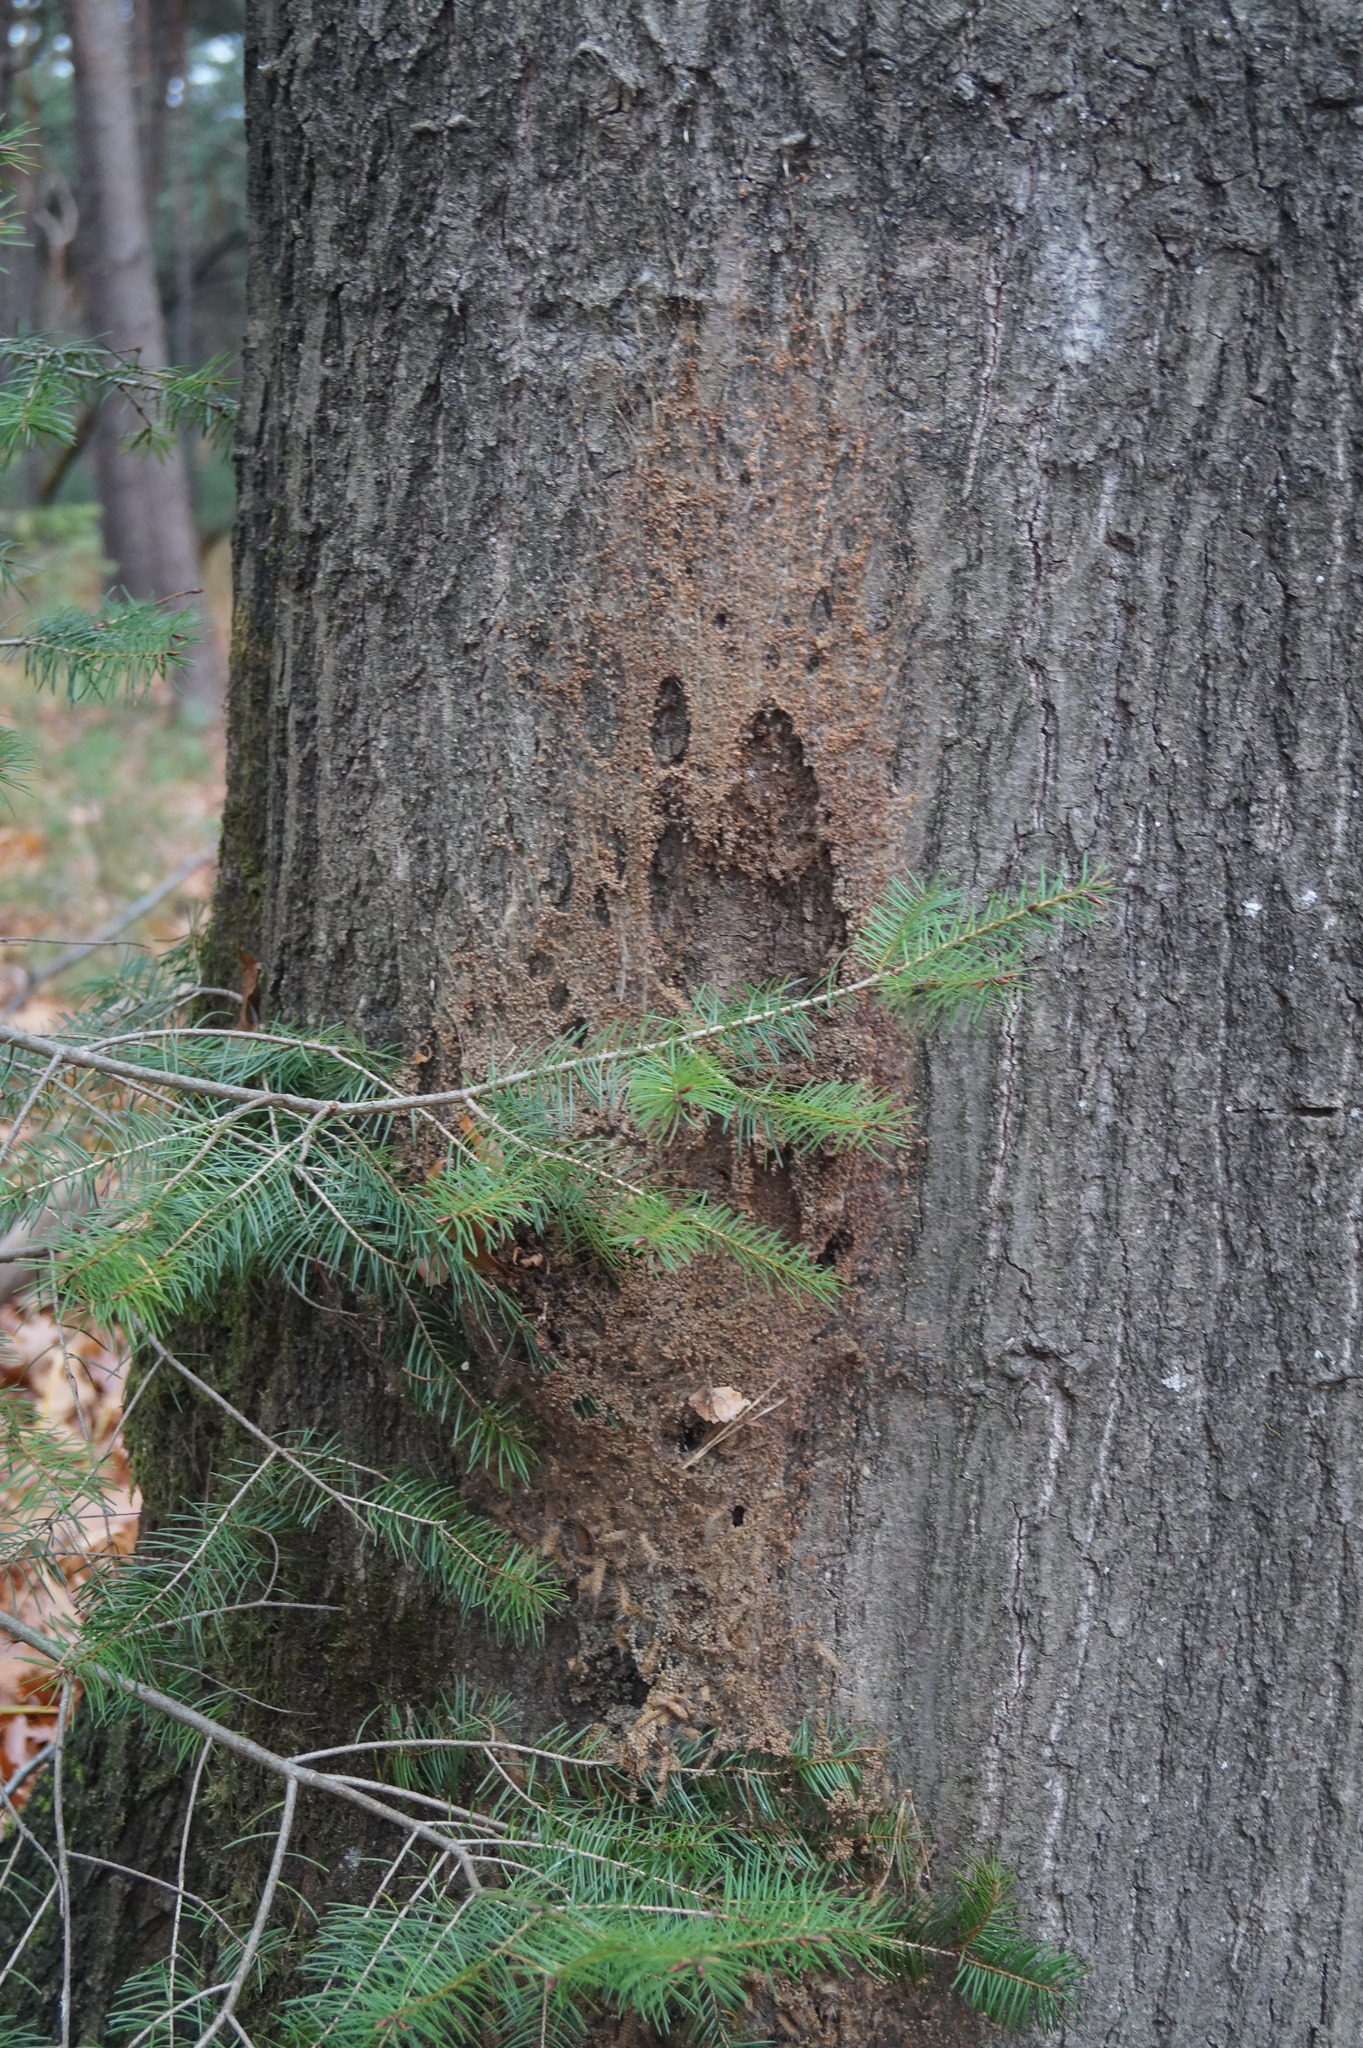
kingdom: Animalia
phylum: Arthropoda
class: Insecta
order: Lepidoptera
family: Notodontidae
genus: Thaumetopoea
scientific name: Thaumetopoea processionea
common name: Oak processionea
